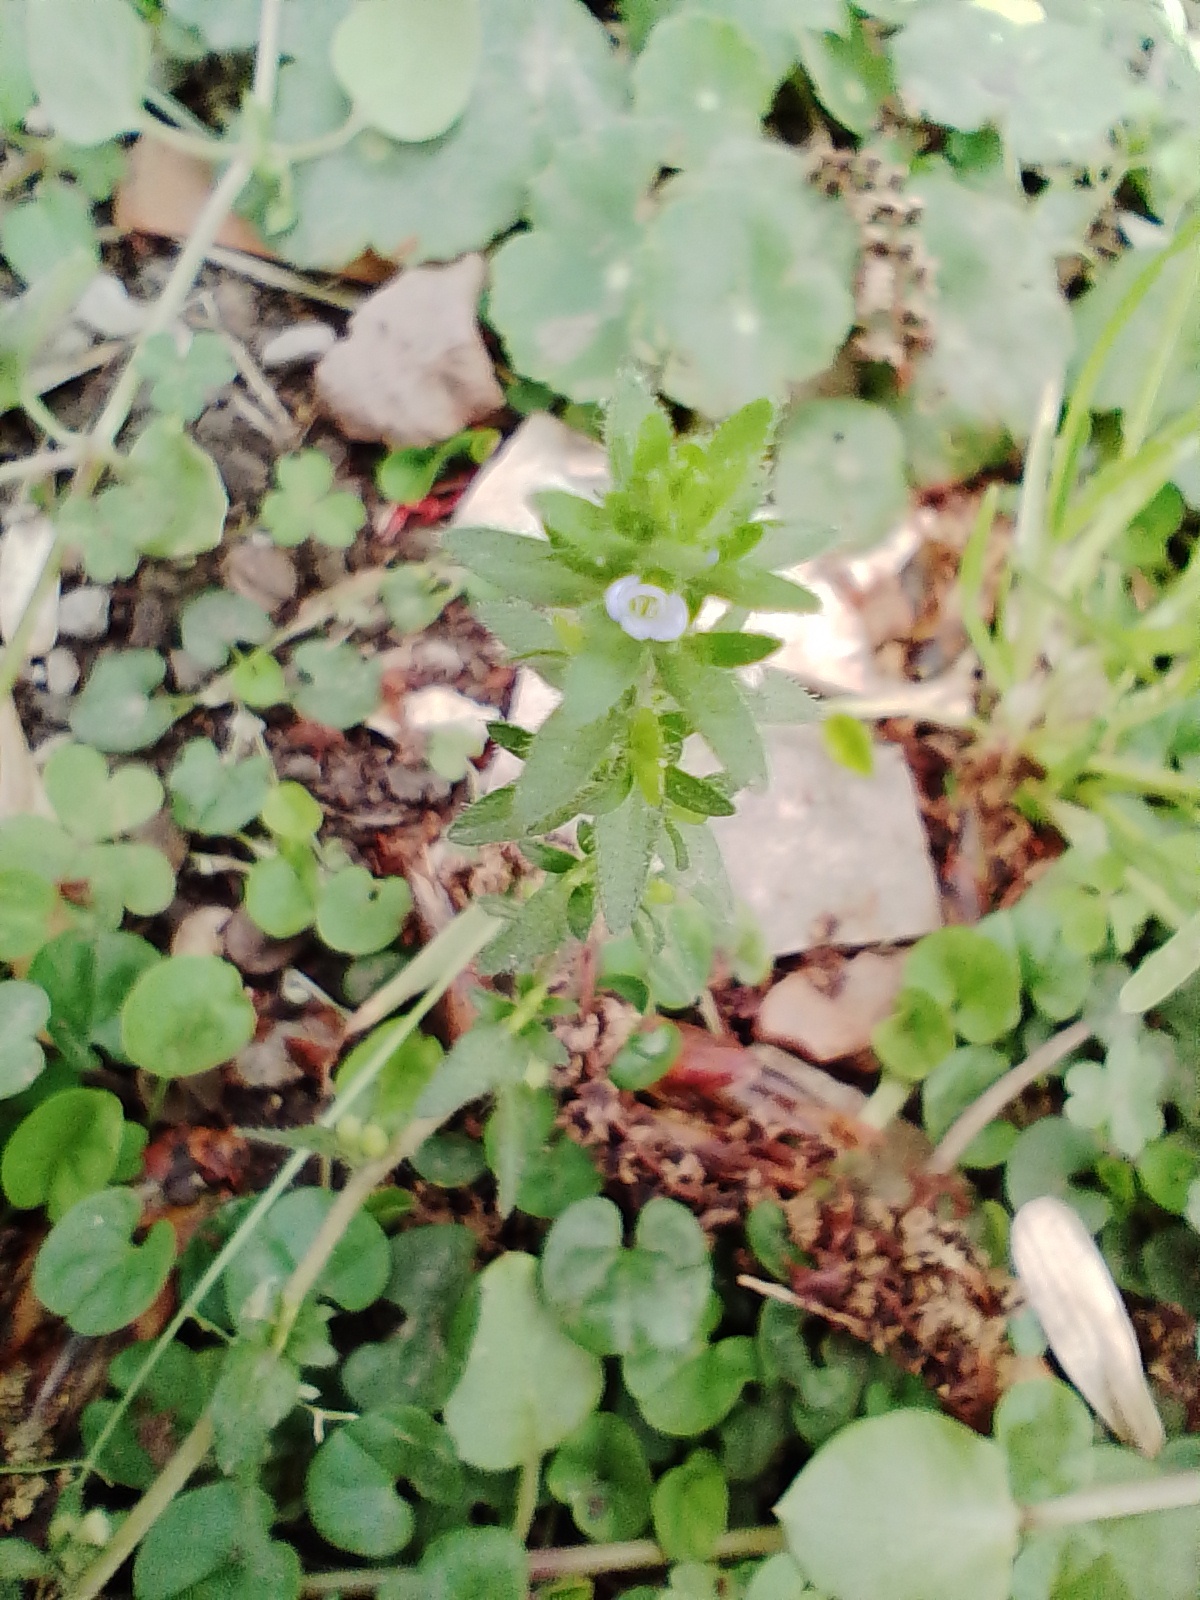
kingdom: Plantae
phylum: Tracheophyta
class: Magnoliopsida
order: Lamiales
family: Plantaginaceae
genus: Veronica
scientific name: Veronica arvensis
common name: Corn speedwell
